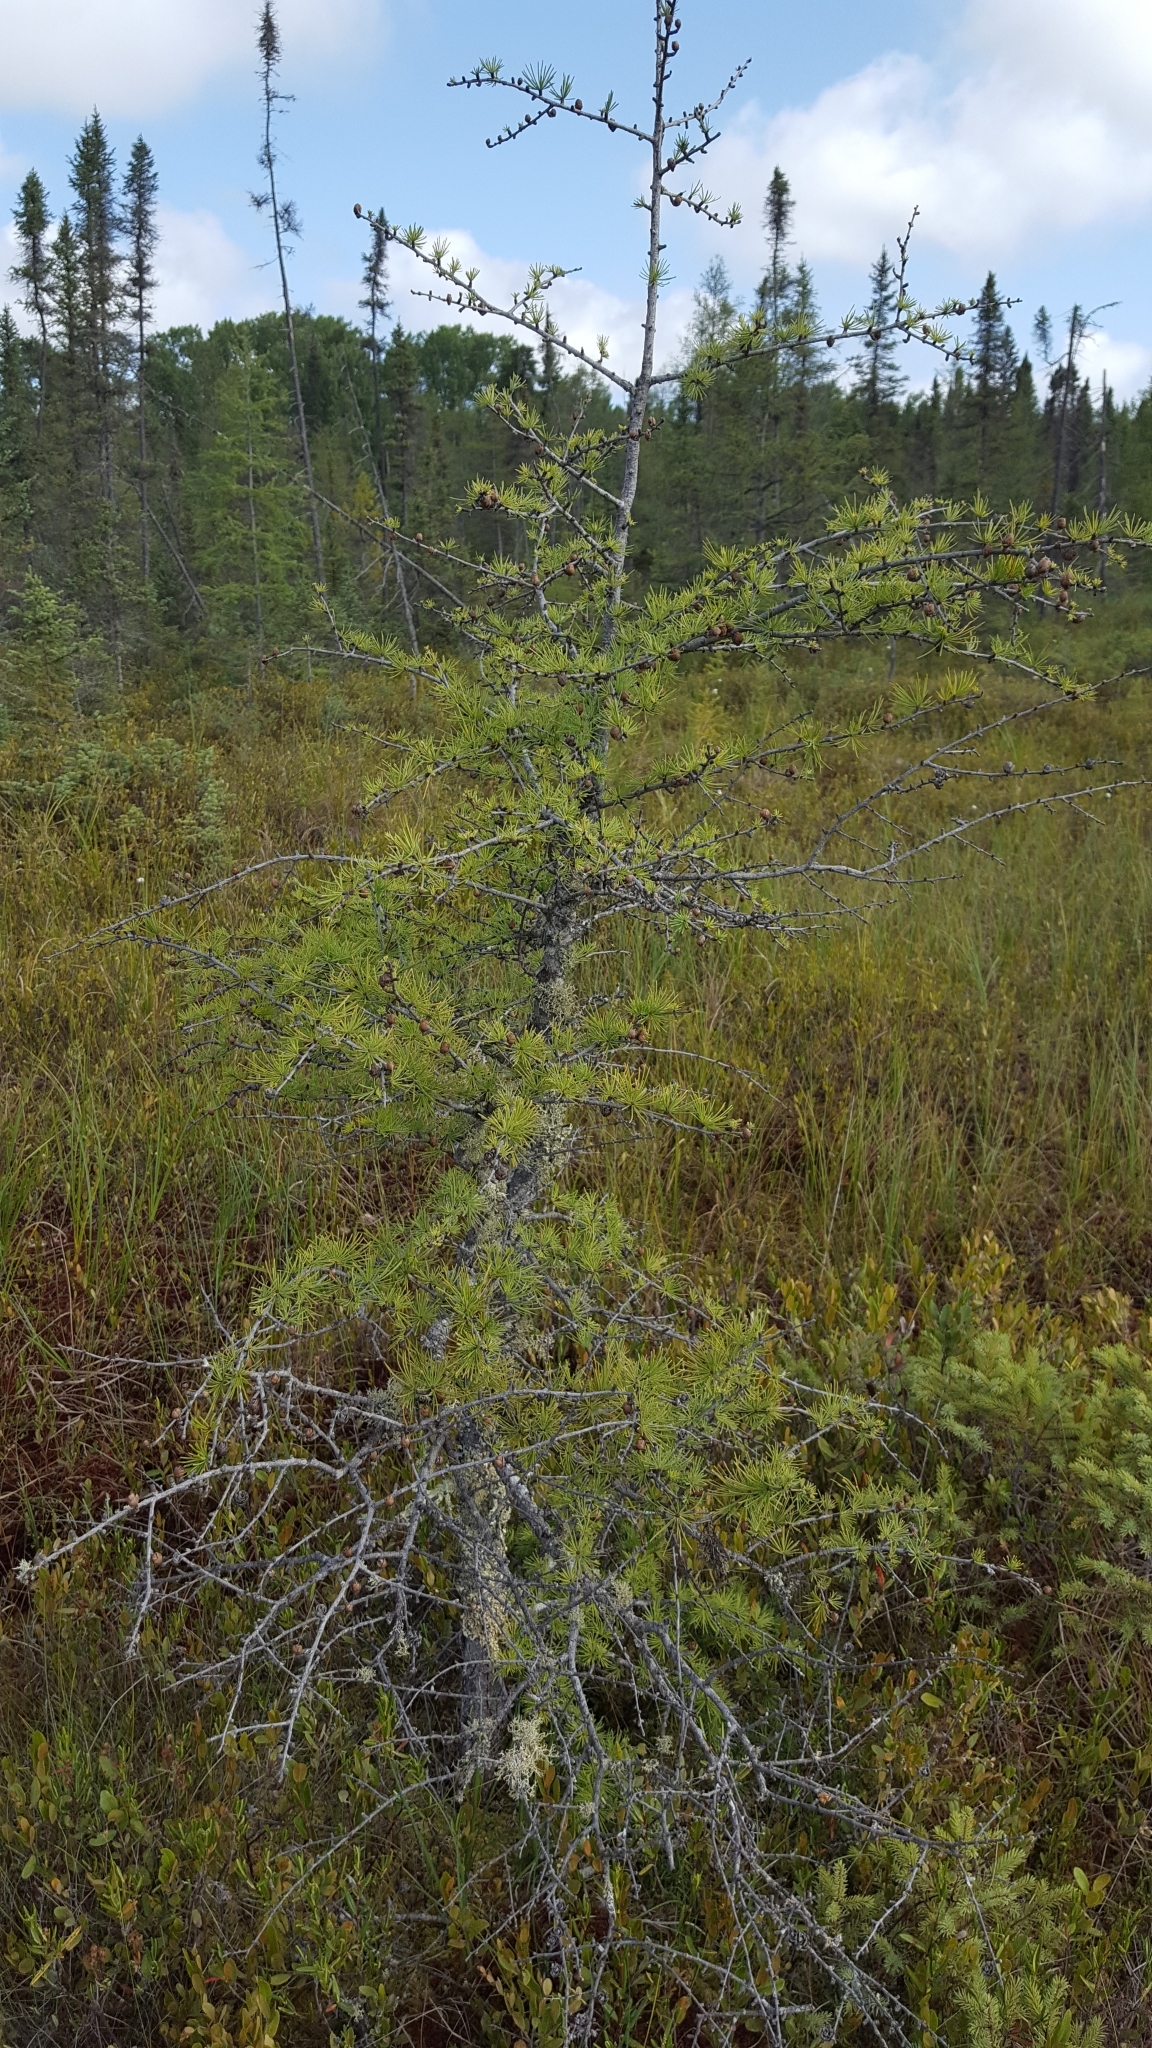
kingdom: Plantae
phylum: Tracheophyta
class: Pinopsida
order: Pinales
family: Pinaceae
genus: Larix
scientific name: Larix laricina
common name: American larch
